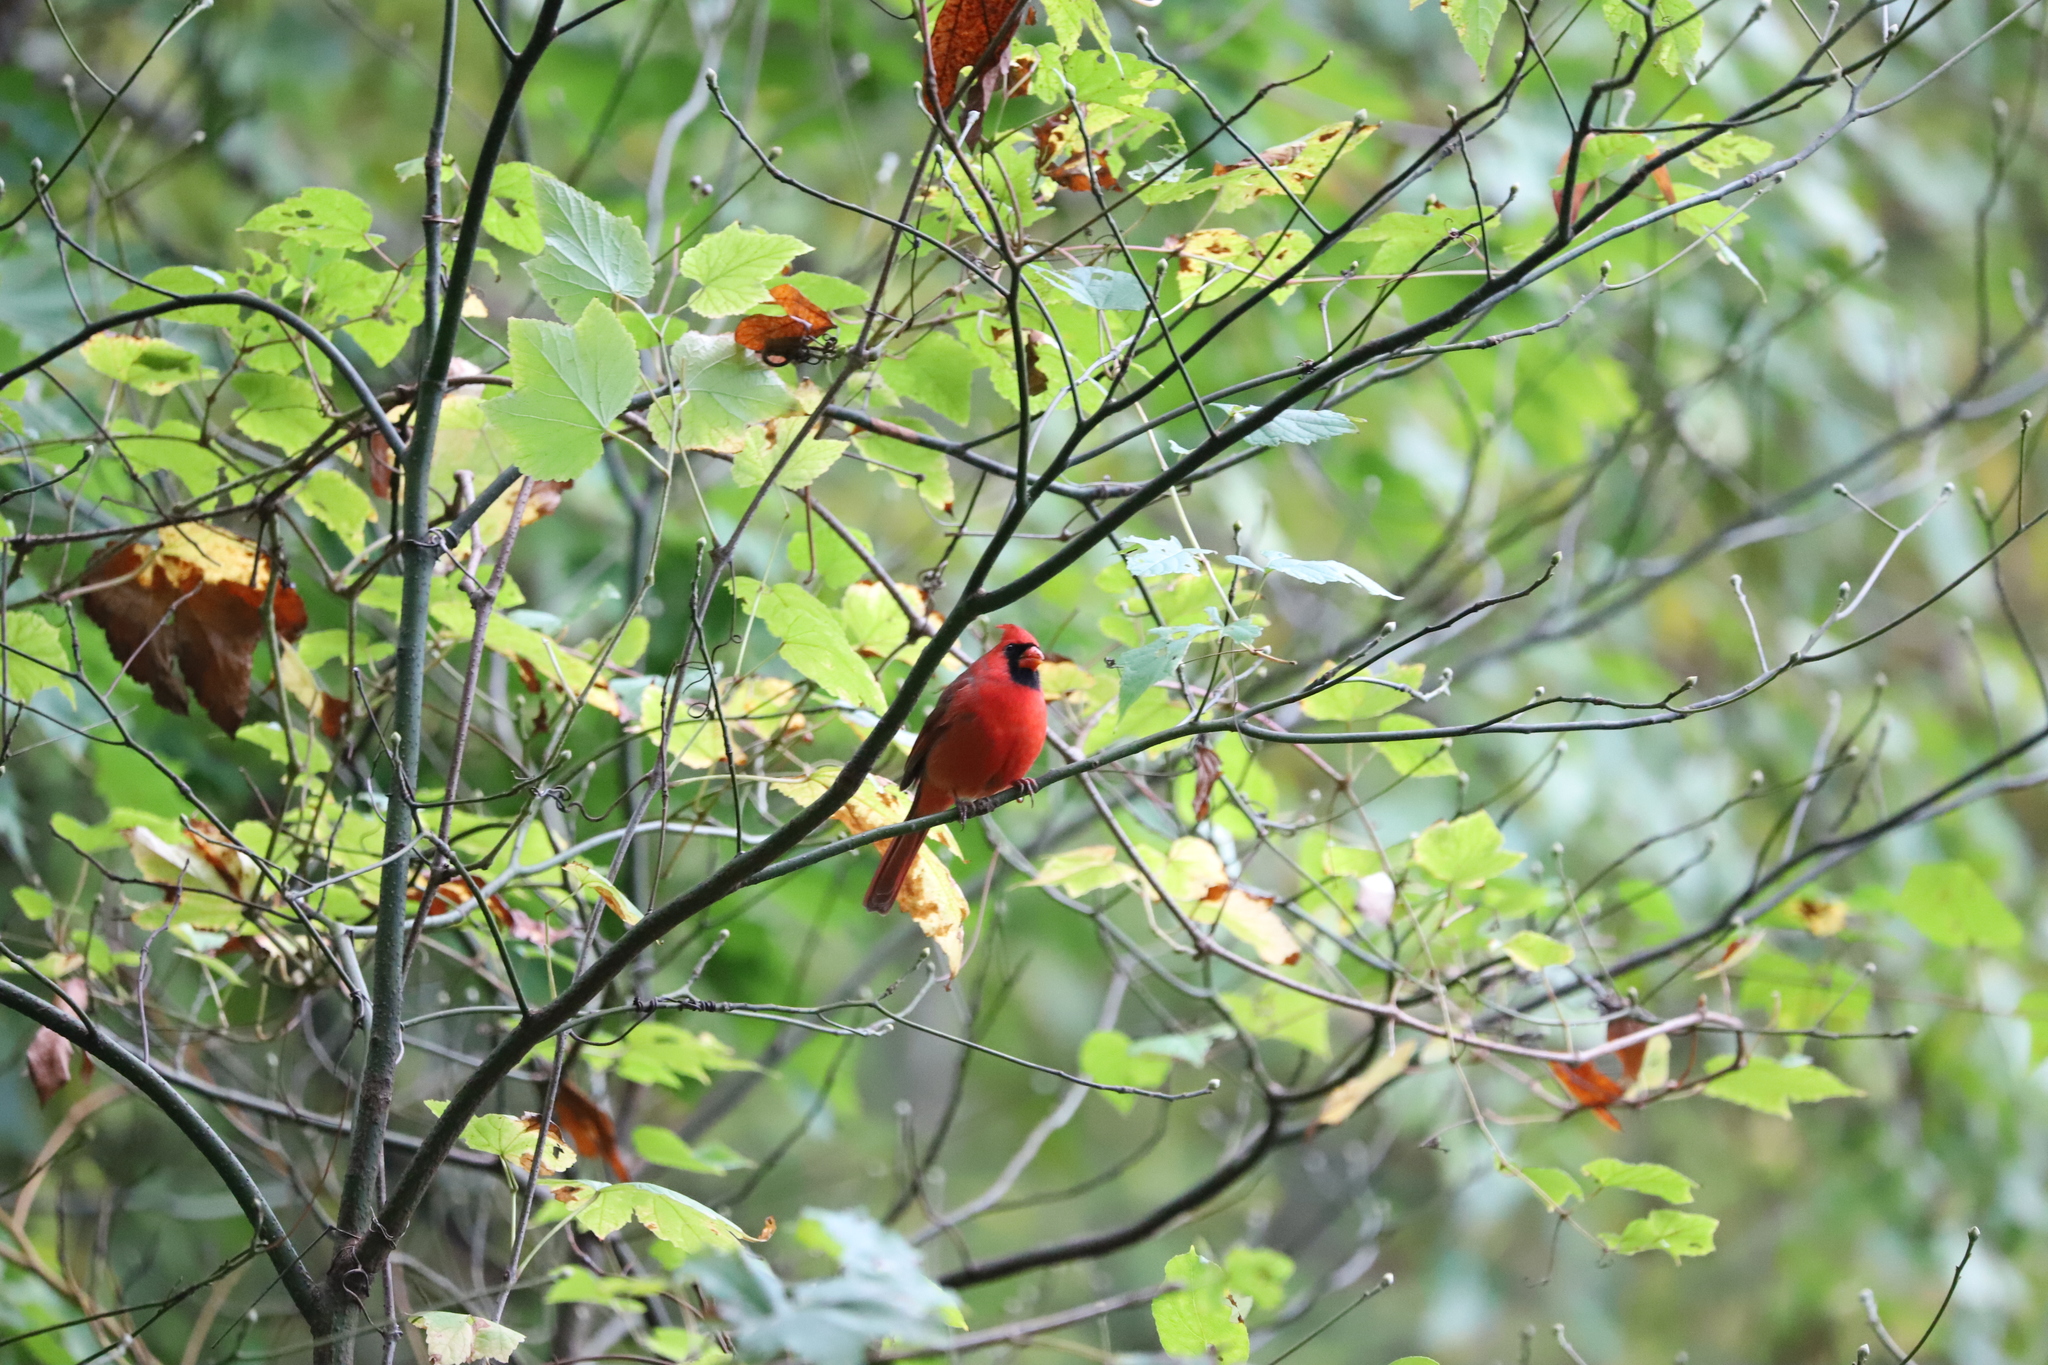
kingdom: Animalia
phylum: Chordata
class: Aves
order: Passeriformes
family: Cardinalidae
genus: Cardinalis
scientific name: Cardinalis cardinalis
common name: Northern cardinal
